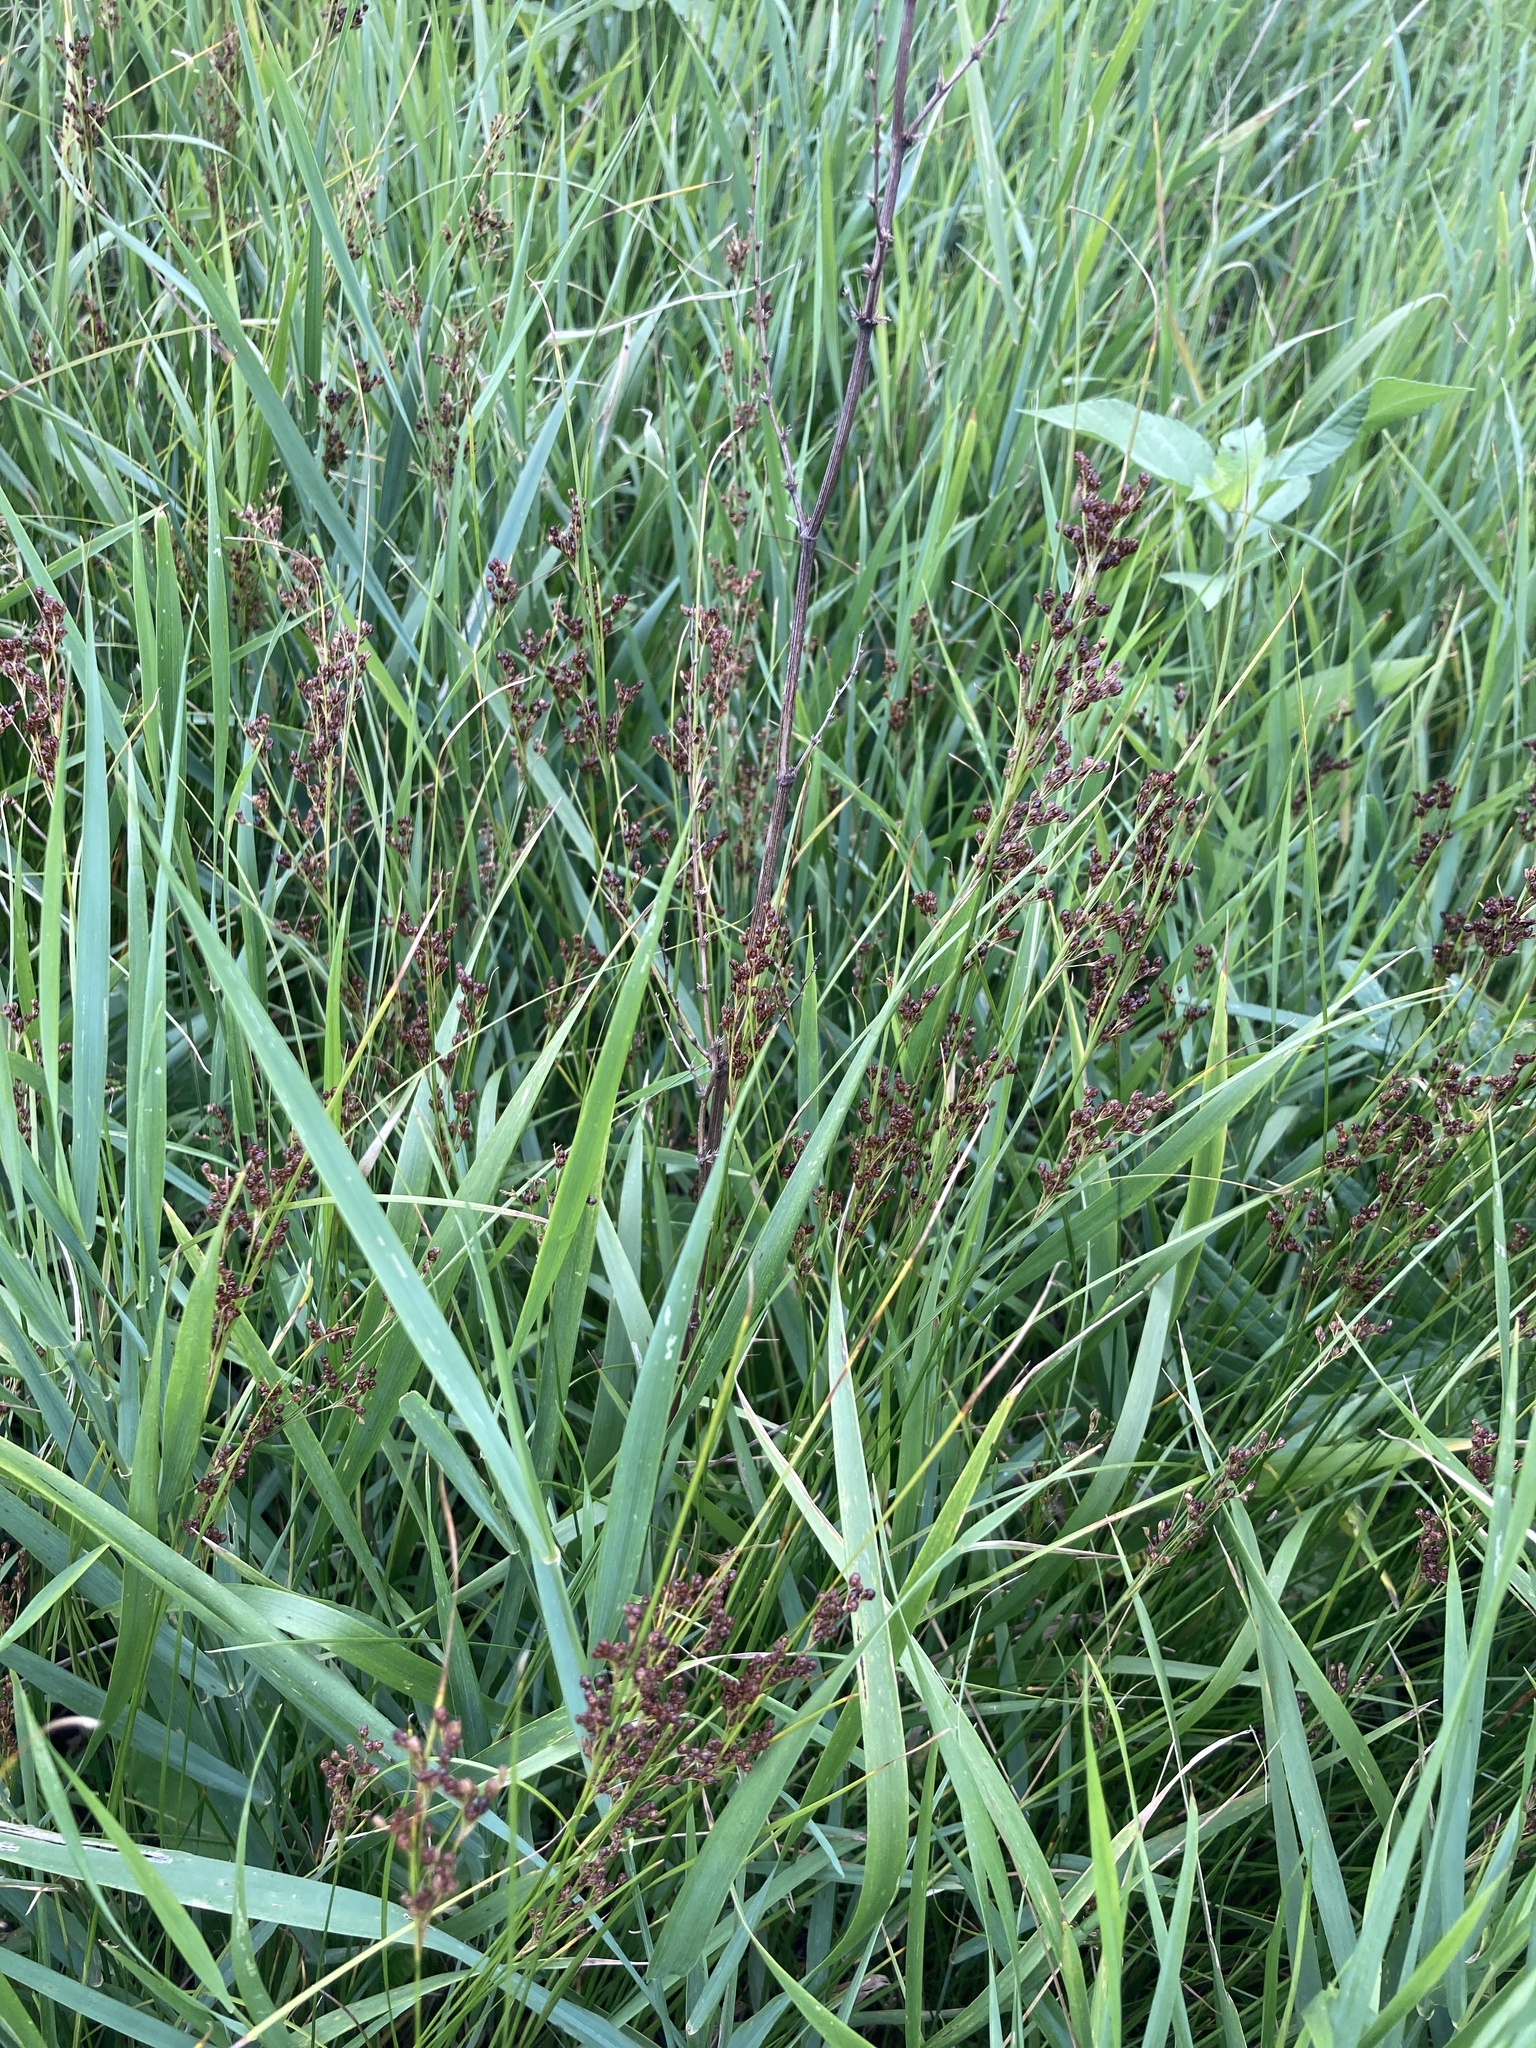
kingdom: Plantae
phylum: Tracheophyta
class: Liliopsida
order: Poales
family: Juncaceae
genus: Juncus
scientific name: Juncus compressus
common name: Round-fruited rush
